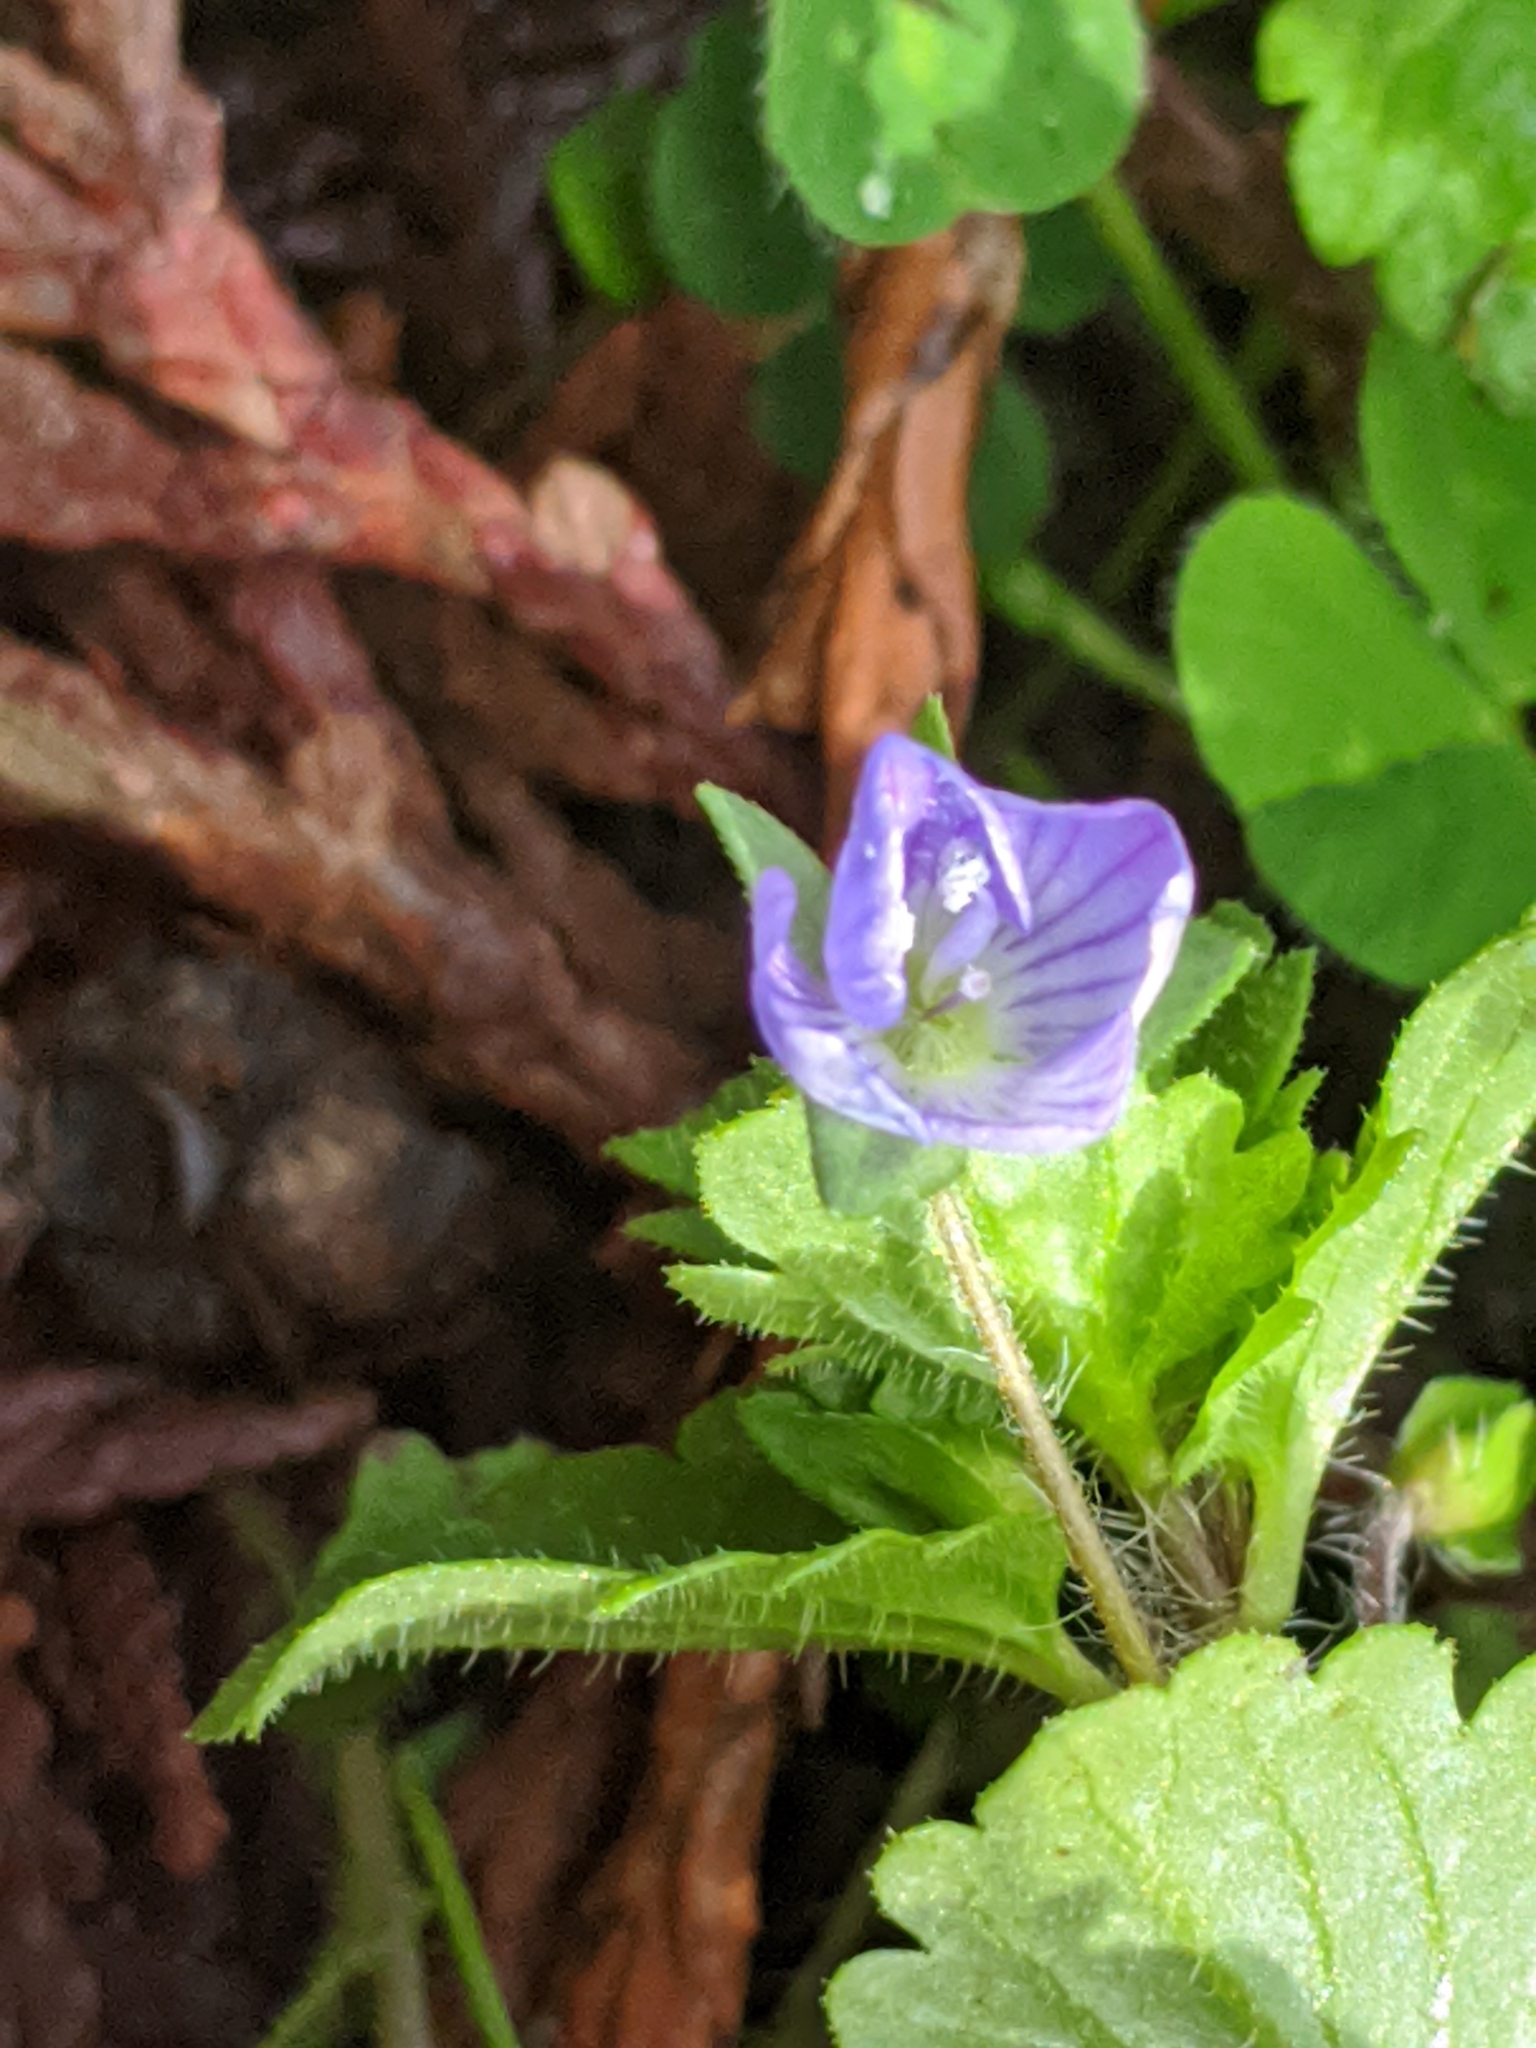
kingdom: Plantae
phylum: Tracheophyta
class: Magnoliopsida
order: Lamiales
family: Plantaginaceae
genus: Veronica
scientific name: Veronica persica
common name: Common field-speedwell
